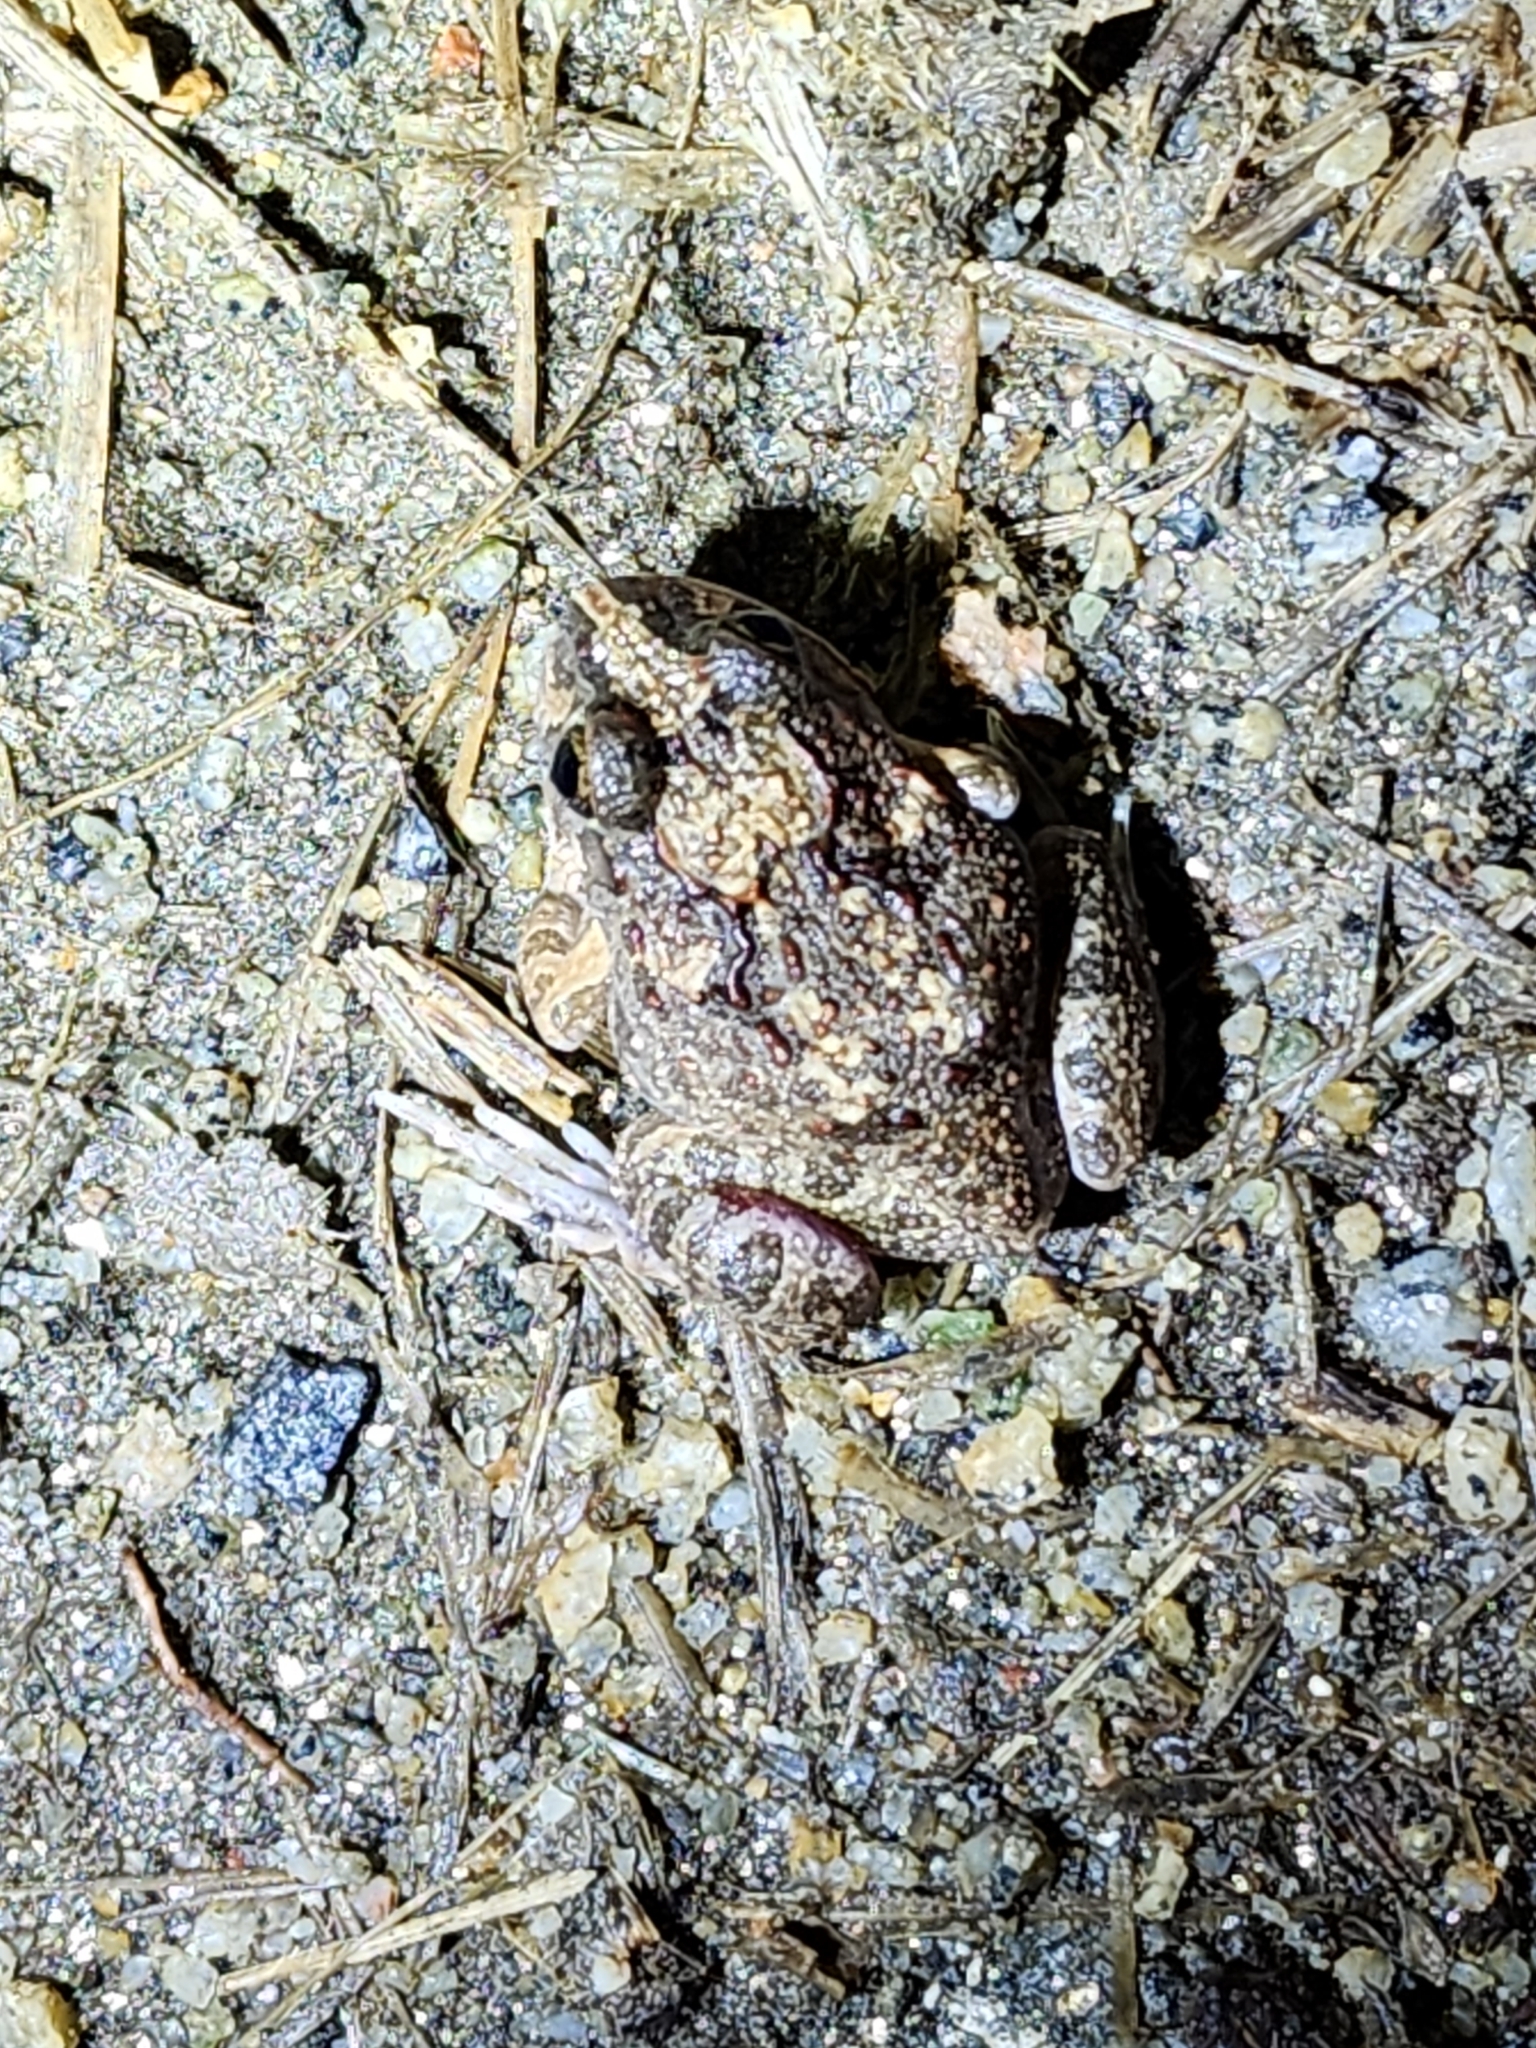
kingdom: Animalia
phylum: Chordata
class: Amphibia
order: Anura
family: Limnodynastidae
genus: Platyplectrum
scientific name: Platyplectrum ornatum
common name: Ornate burrowing frog
